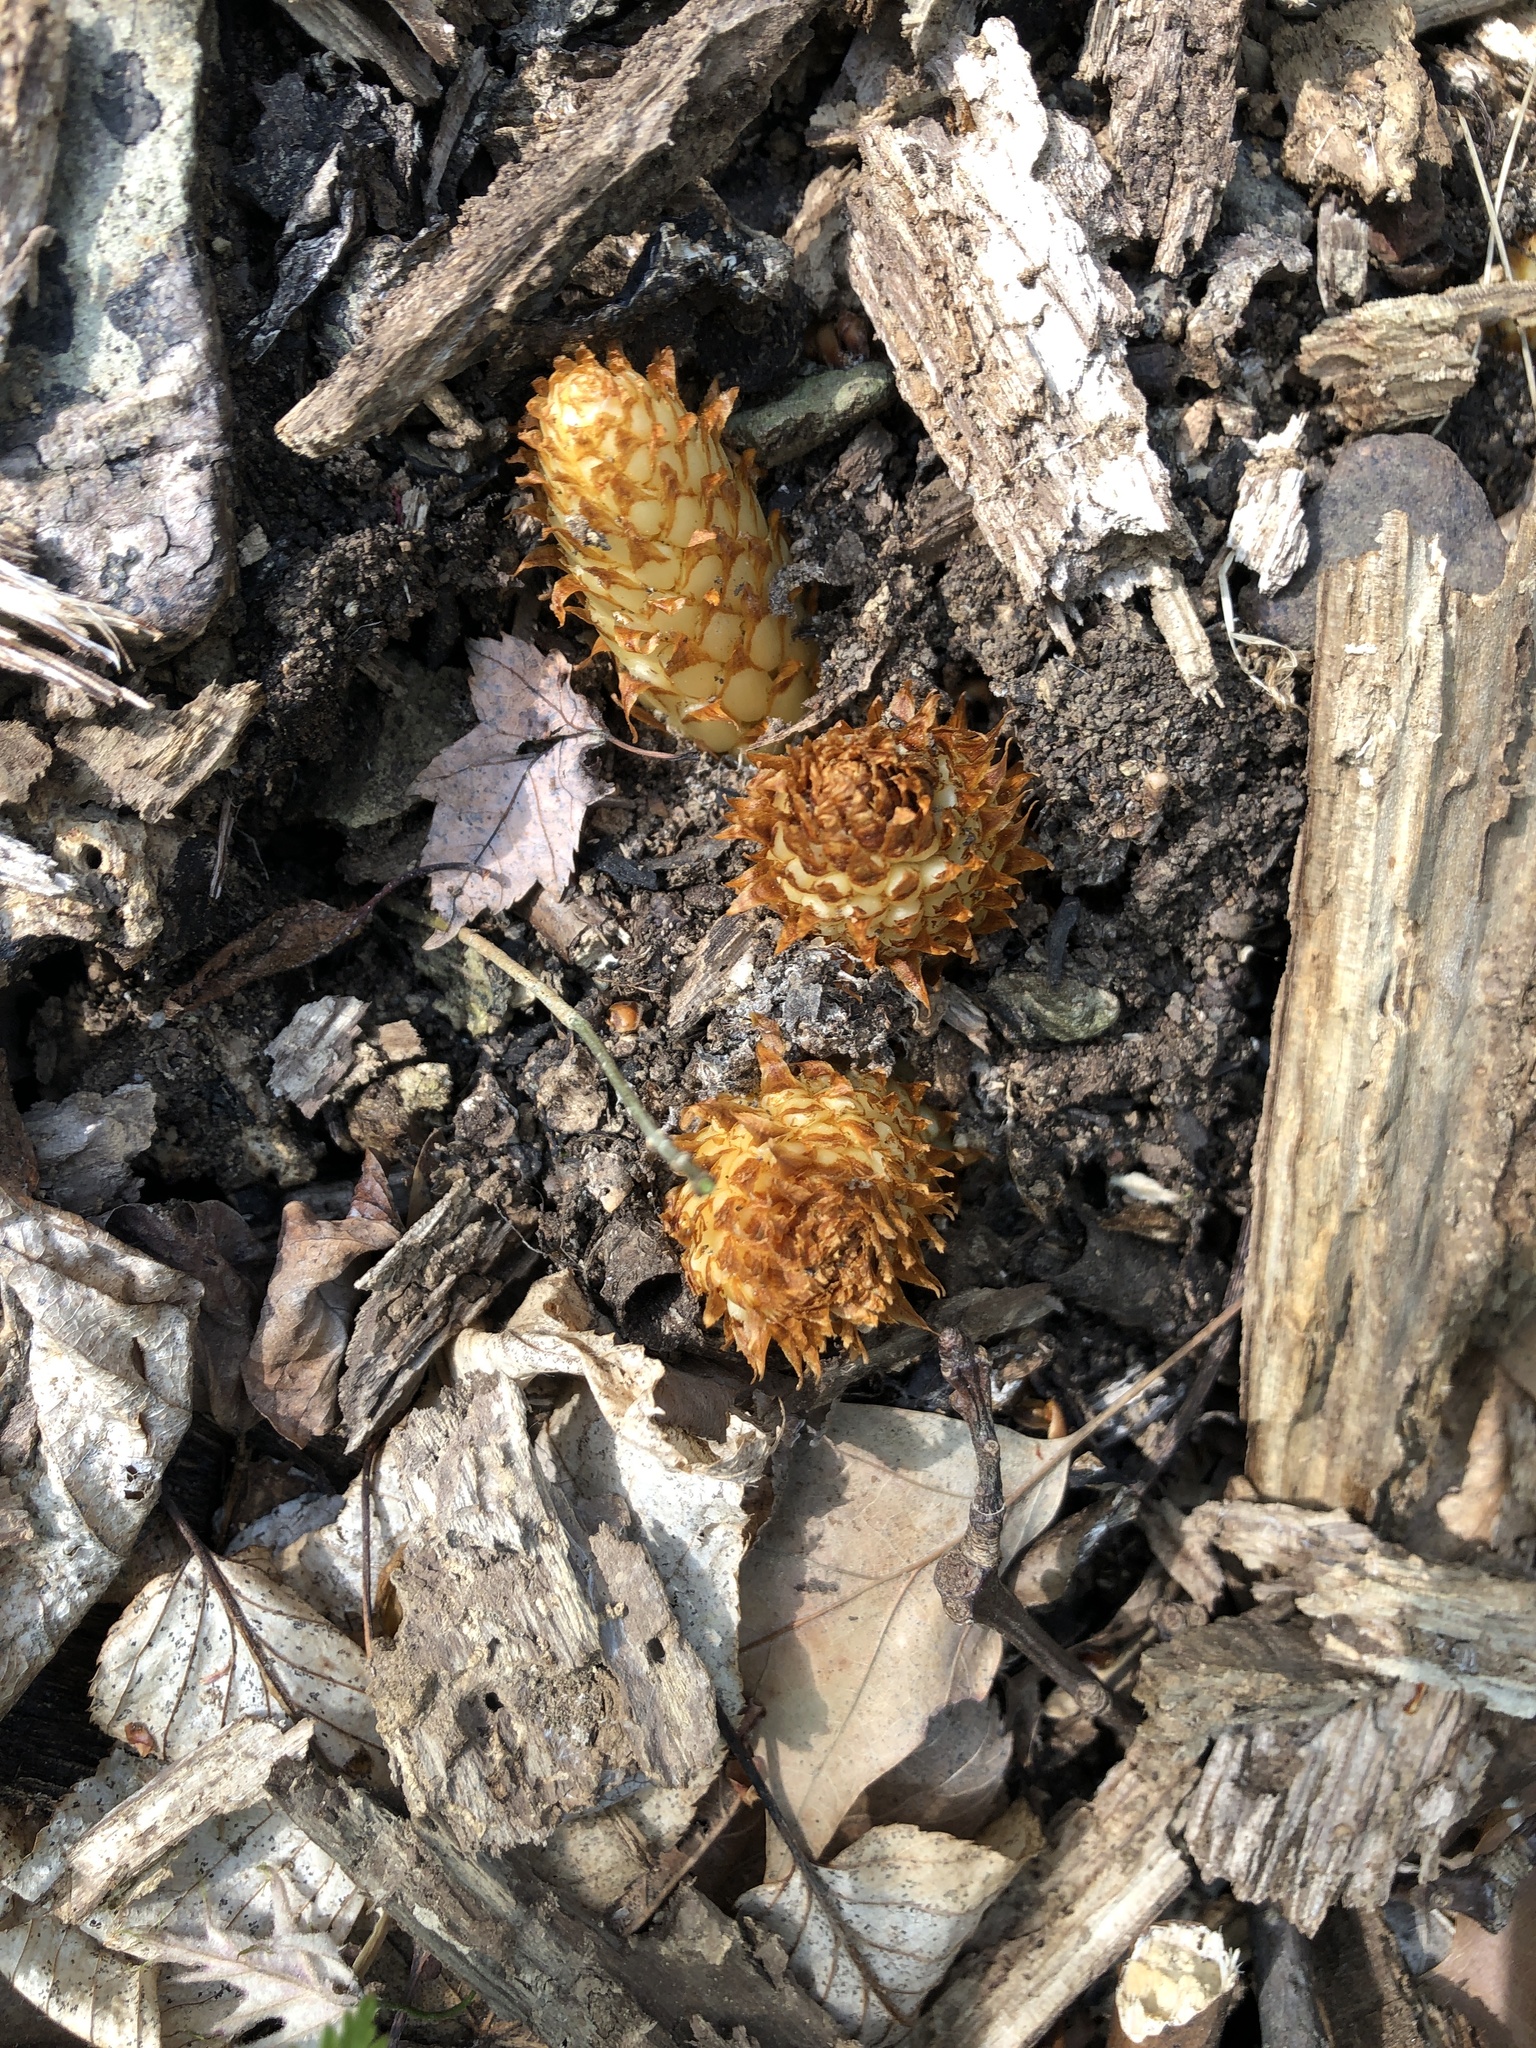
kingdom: Plantae
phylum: Tracheophyta
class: Magnoliopsida
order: Lamiales
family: Orobanchaceae
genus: Conopholis
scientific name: Conopholis americana
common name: American cancer-root
